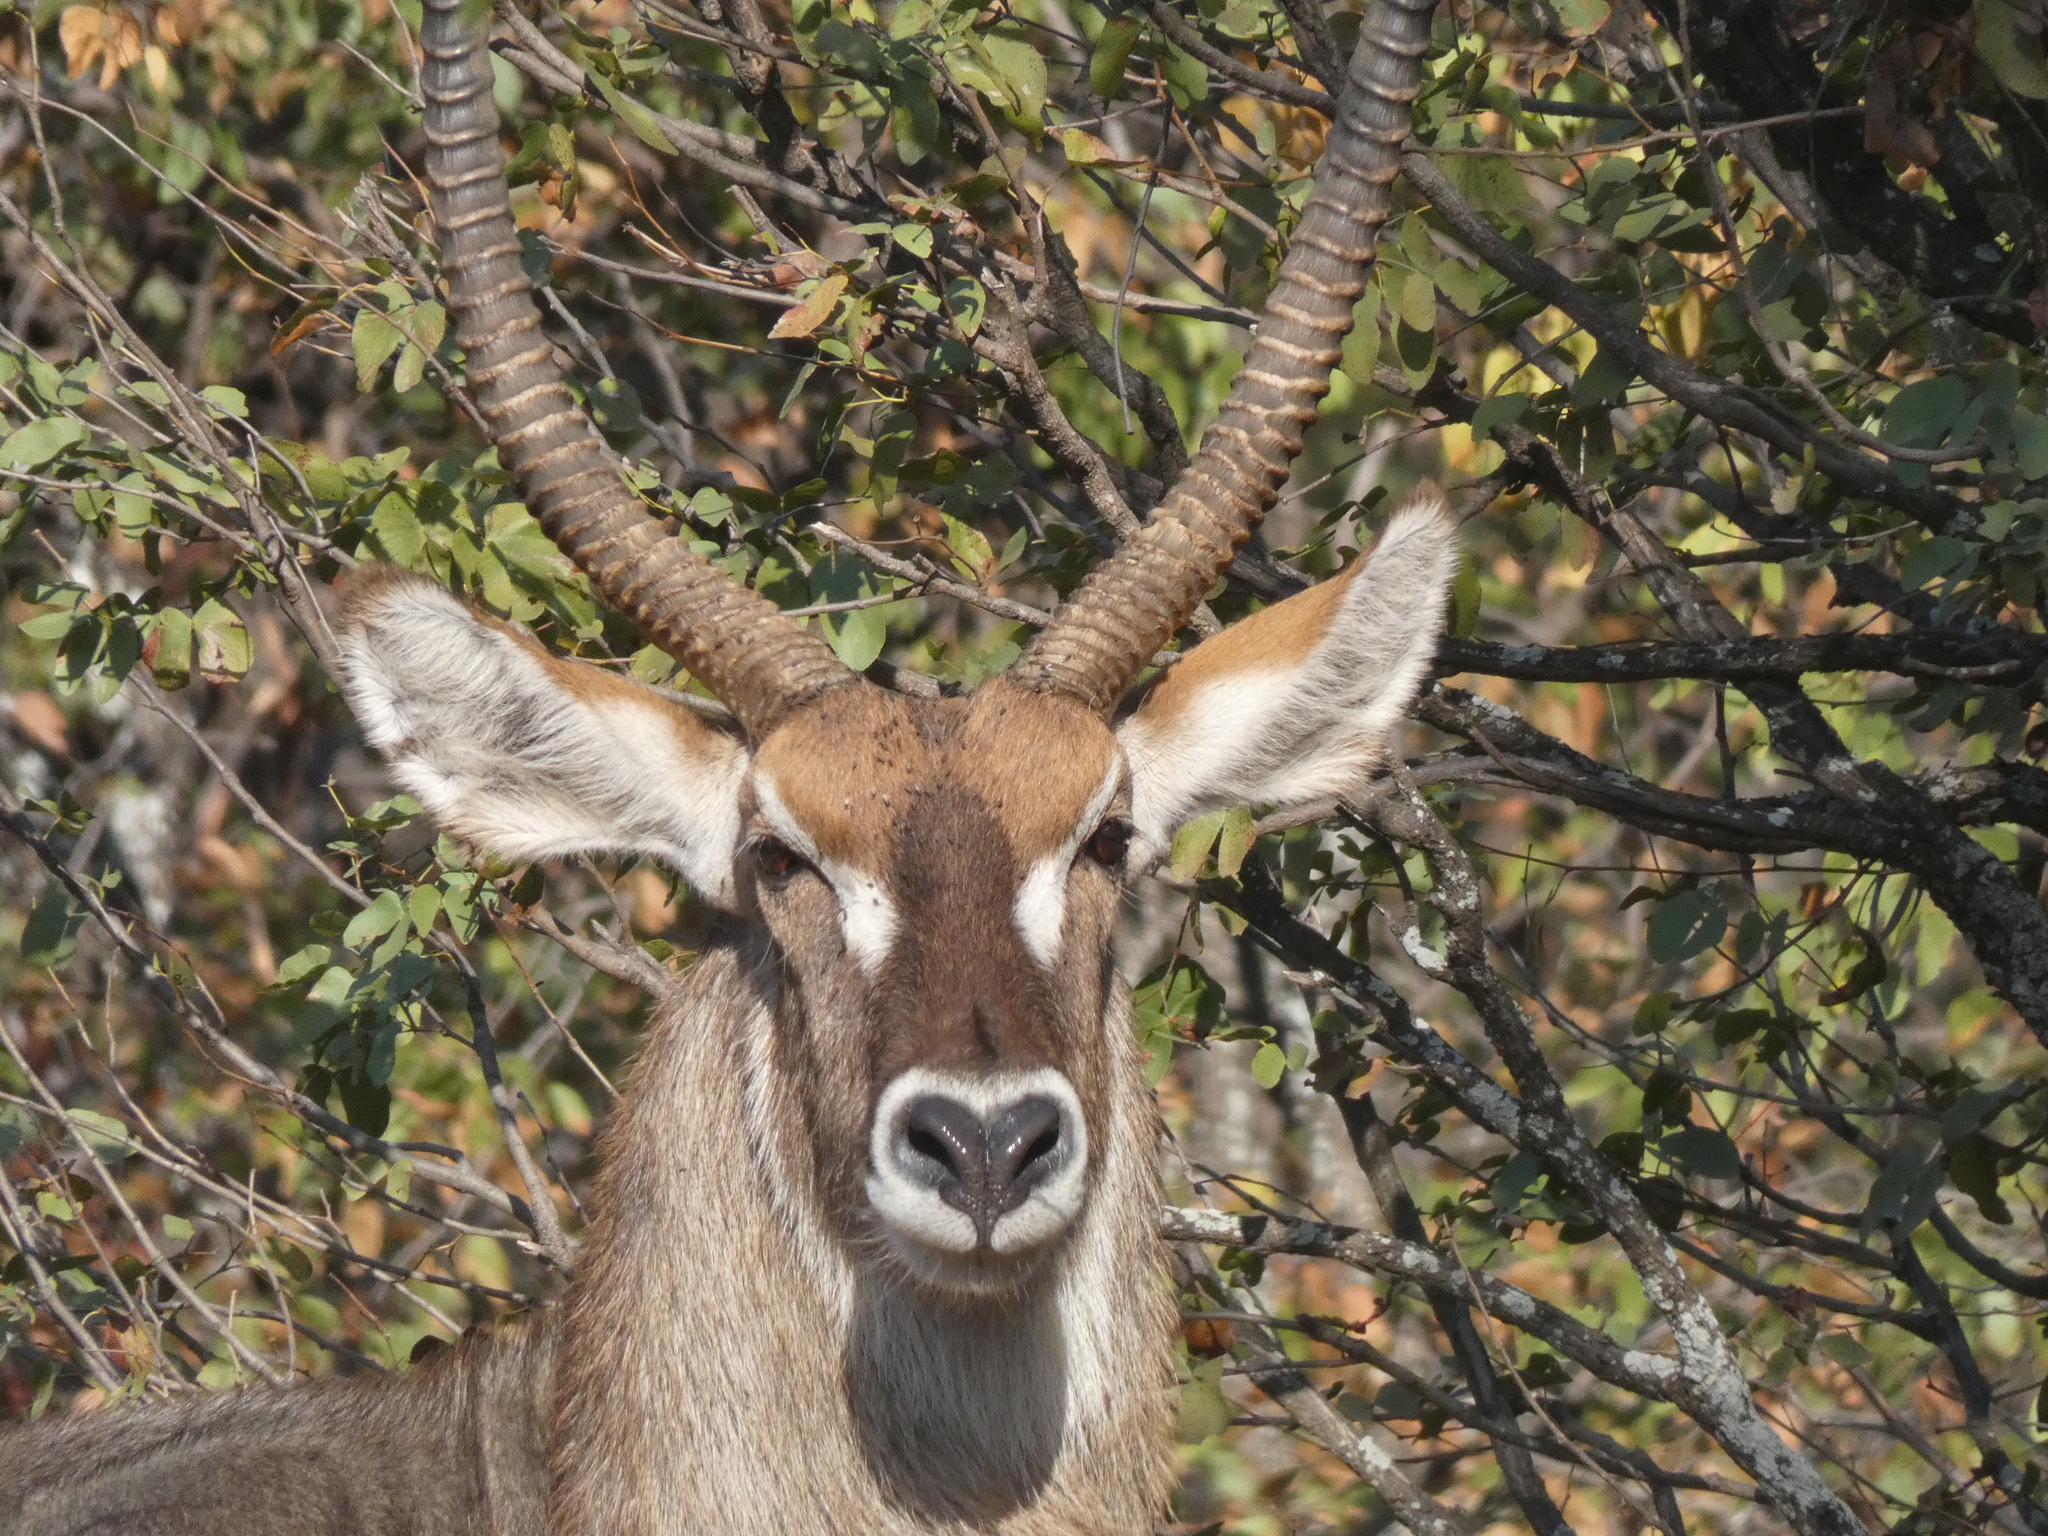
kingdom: Animalia
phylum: Chordata
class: Mammalia
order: Artiodactyla
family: Bovidae
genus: Kobus
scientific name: Kobus ellipsiprymnus
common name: Waterbuck
